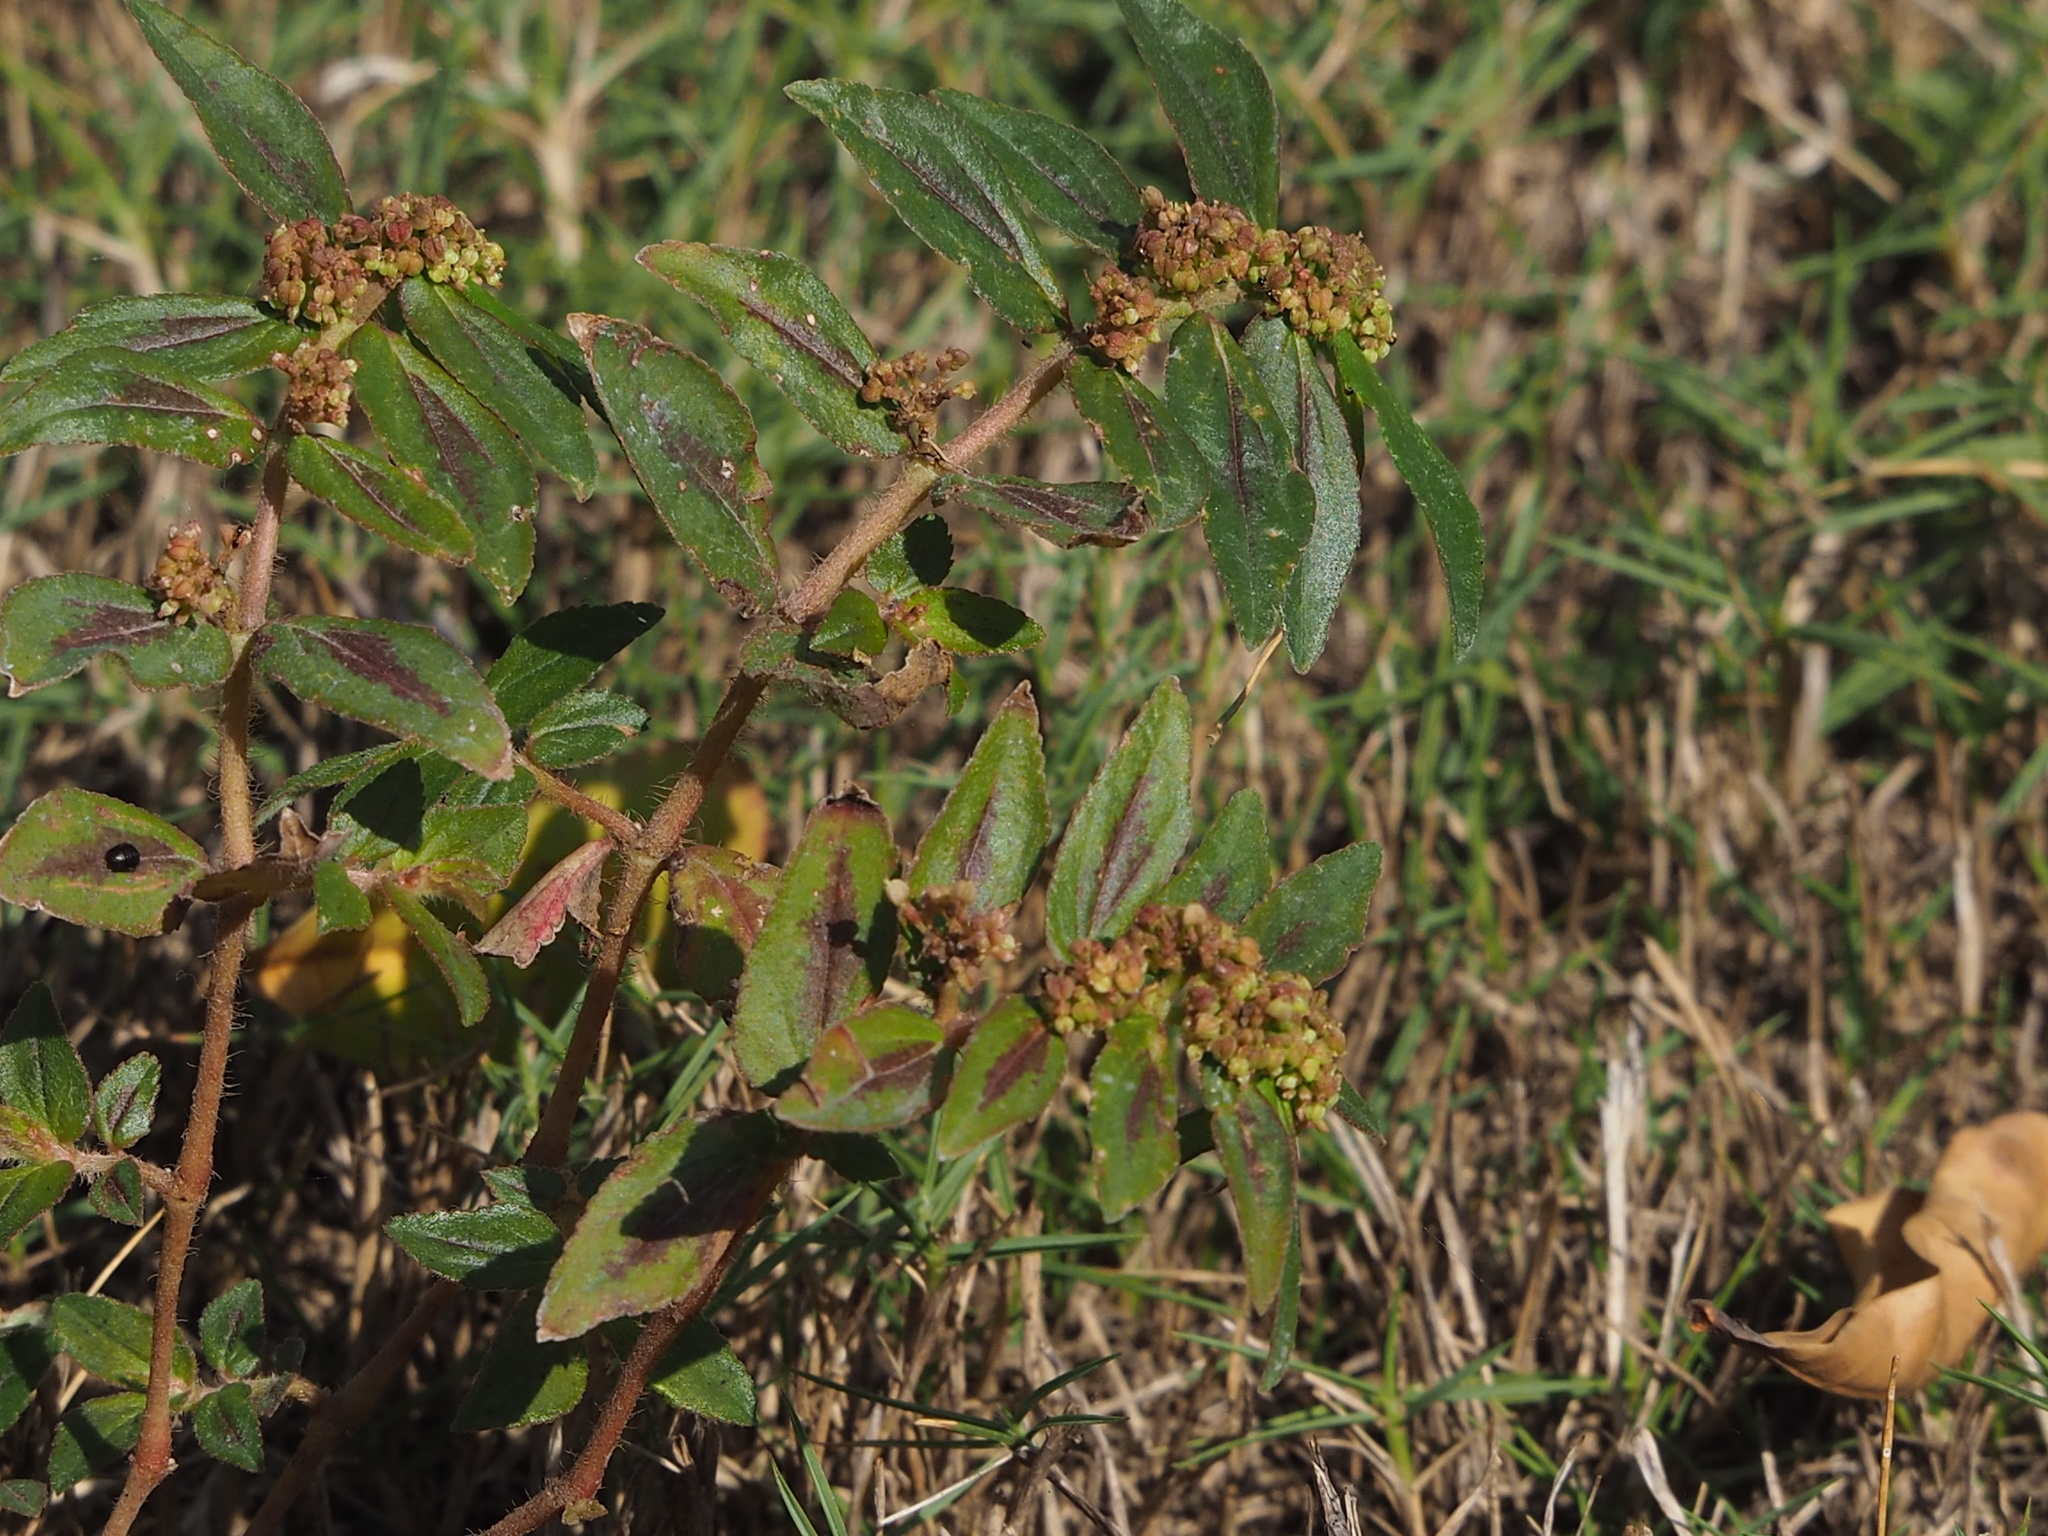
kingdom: Plantae
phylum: Tracheophyta
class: Magnoliopsida
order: Malpighiales
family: Euphorbiaceae
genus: Euphorbia
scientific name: Euphorbia hirta
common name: Pillpod sandmat
